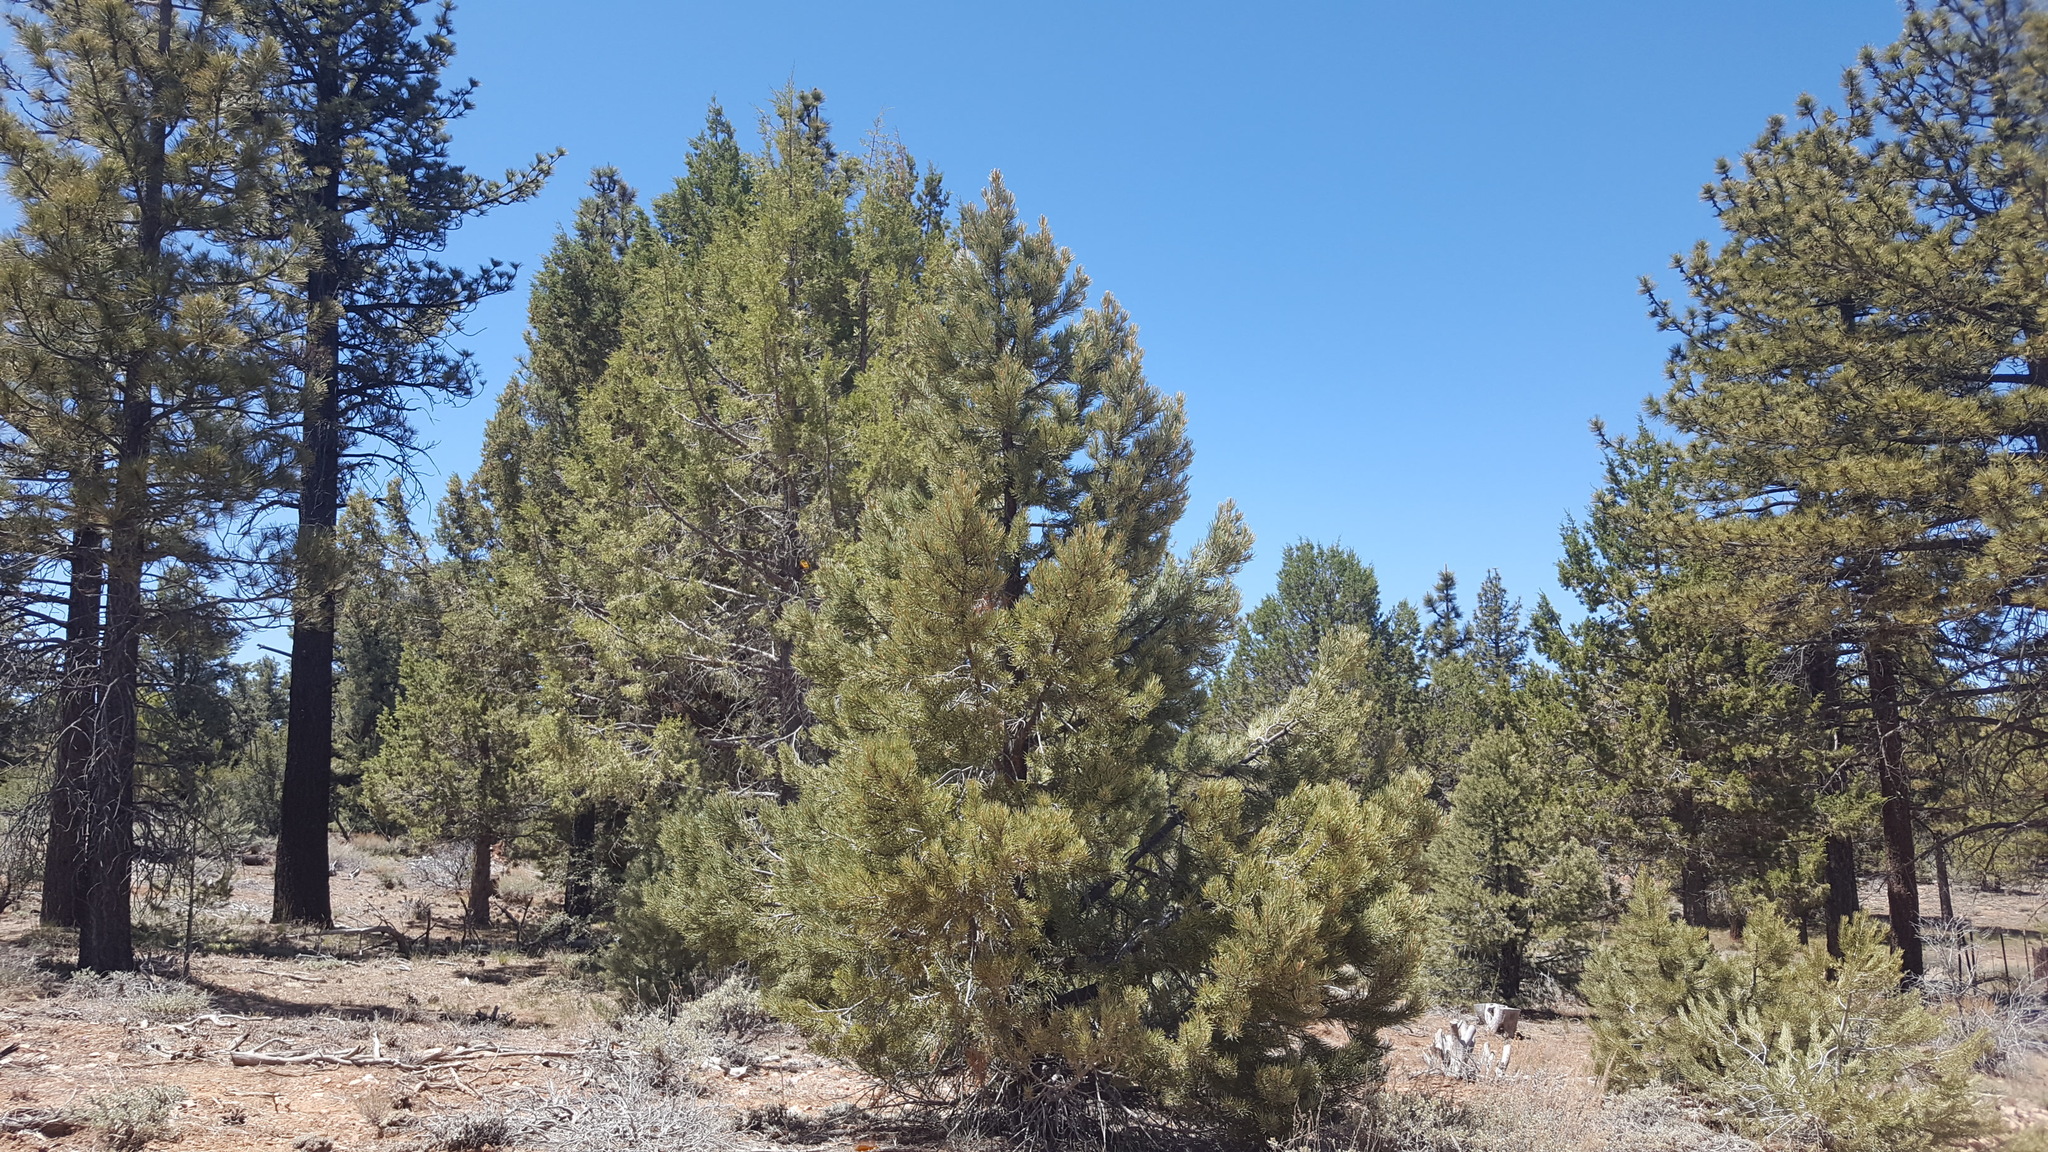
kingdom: Plantae
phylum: Tracheophyta
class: Pinopsida
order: Pinales
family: Pinaceae
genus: Pinus
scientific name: Pinus monophylla
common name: One-leaved nut pine
